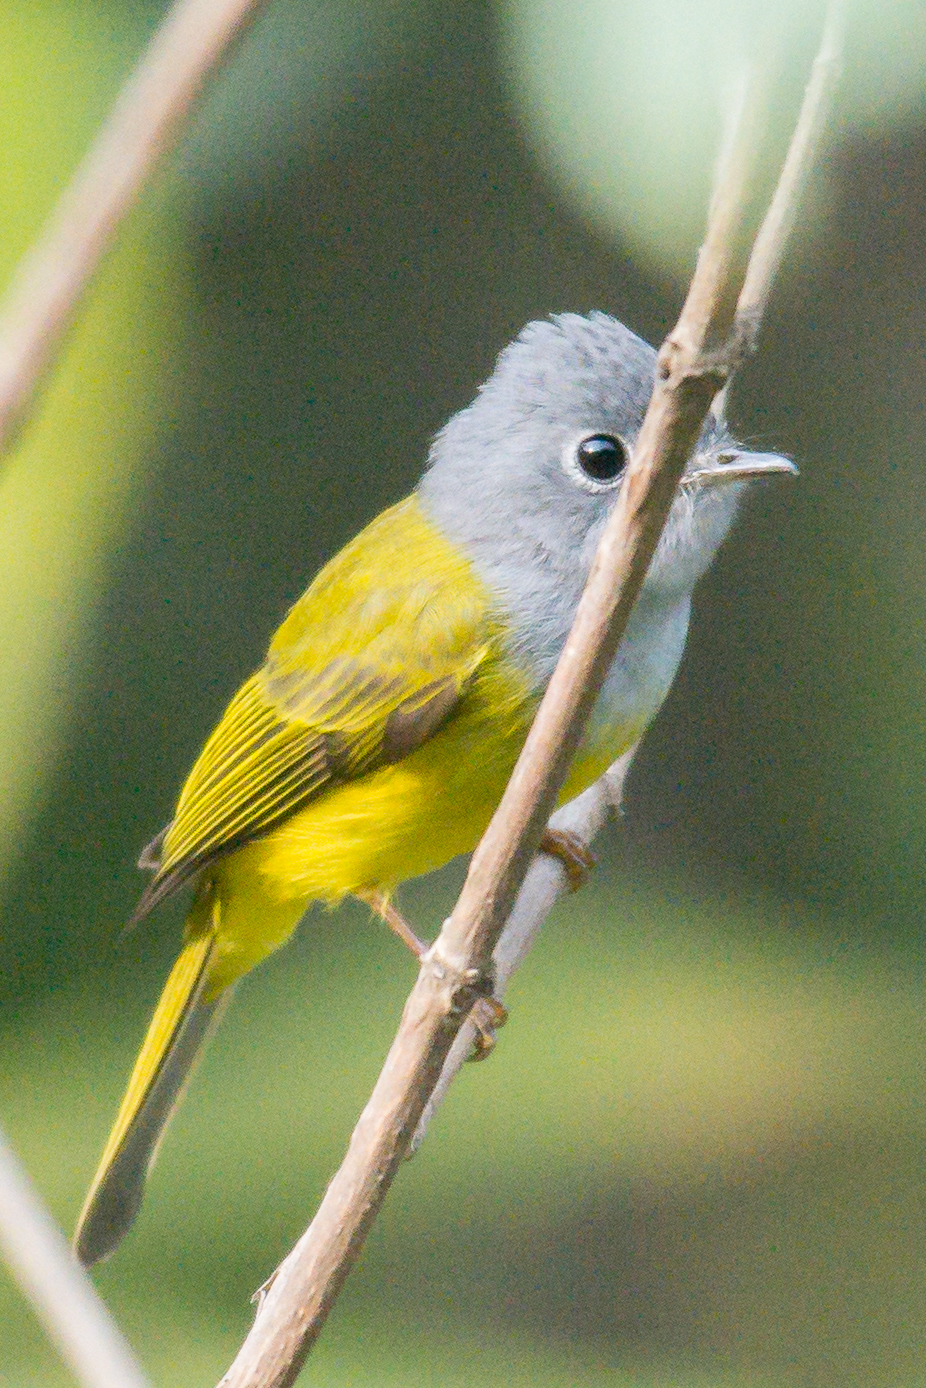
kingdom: Animalia
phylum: Chordata
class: Aves
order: Passeriformes
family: Stenostiridae
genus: Culicicapa
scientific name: Culicicapa ceylonensis
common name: Grey-headed canary-flycatcher
